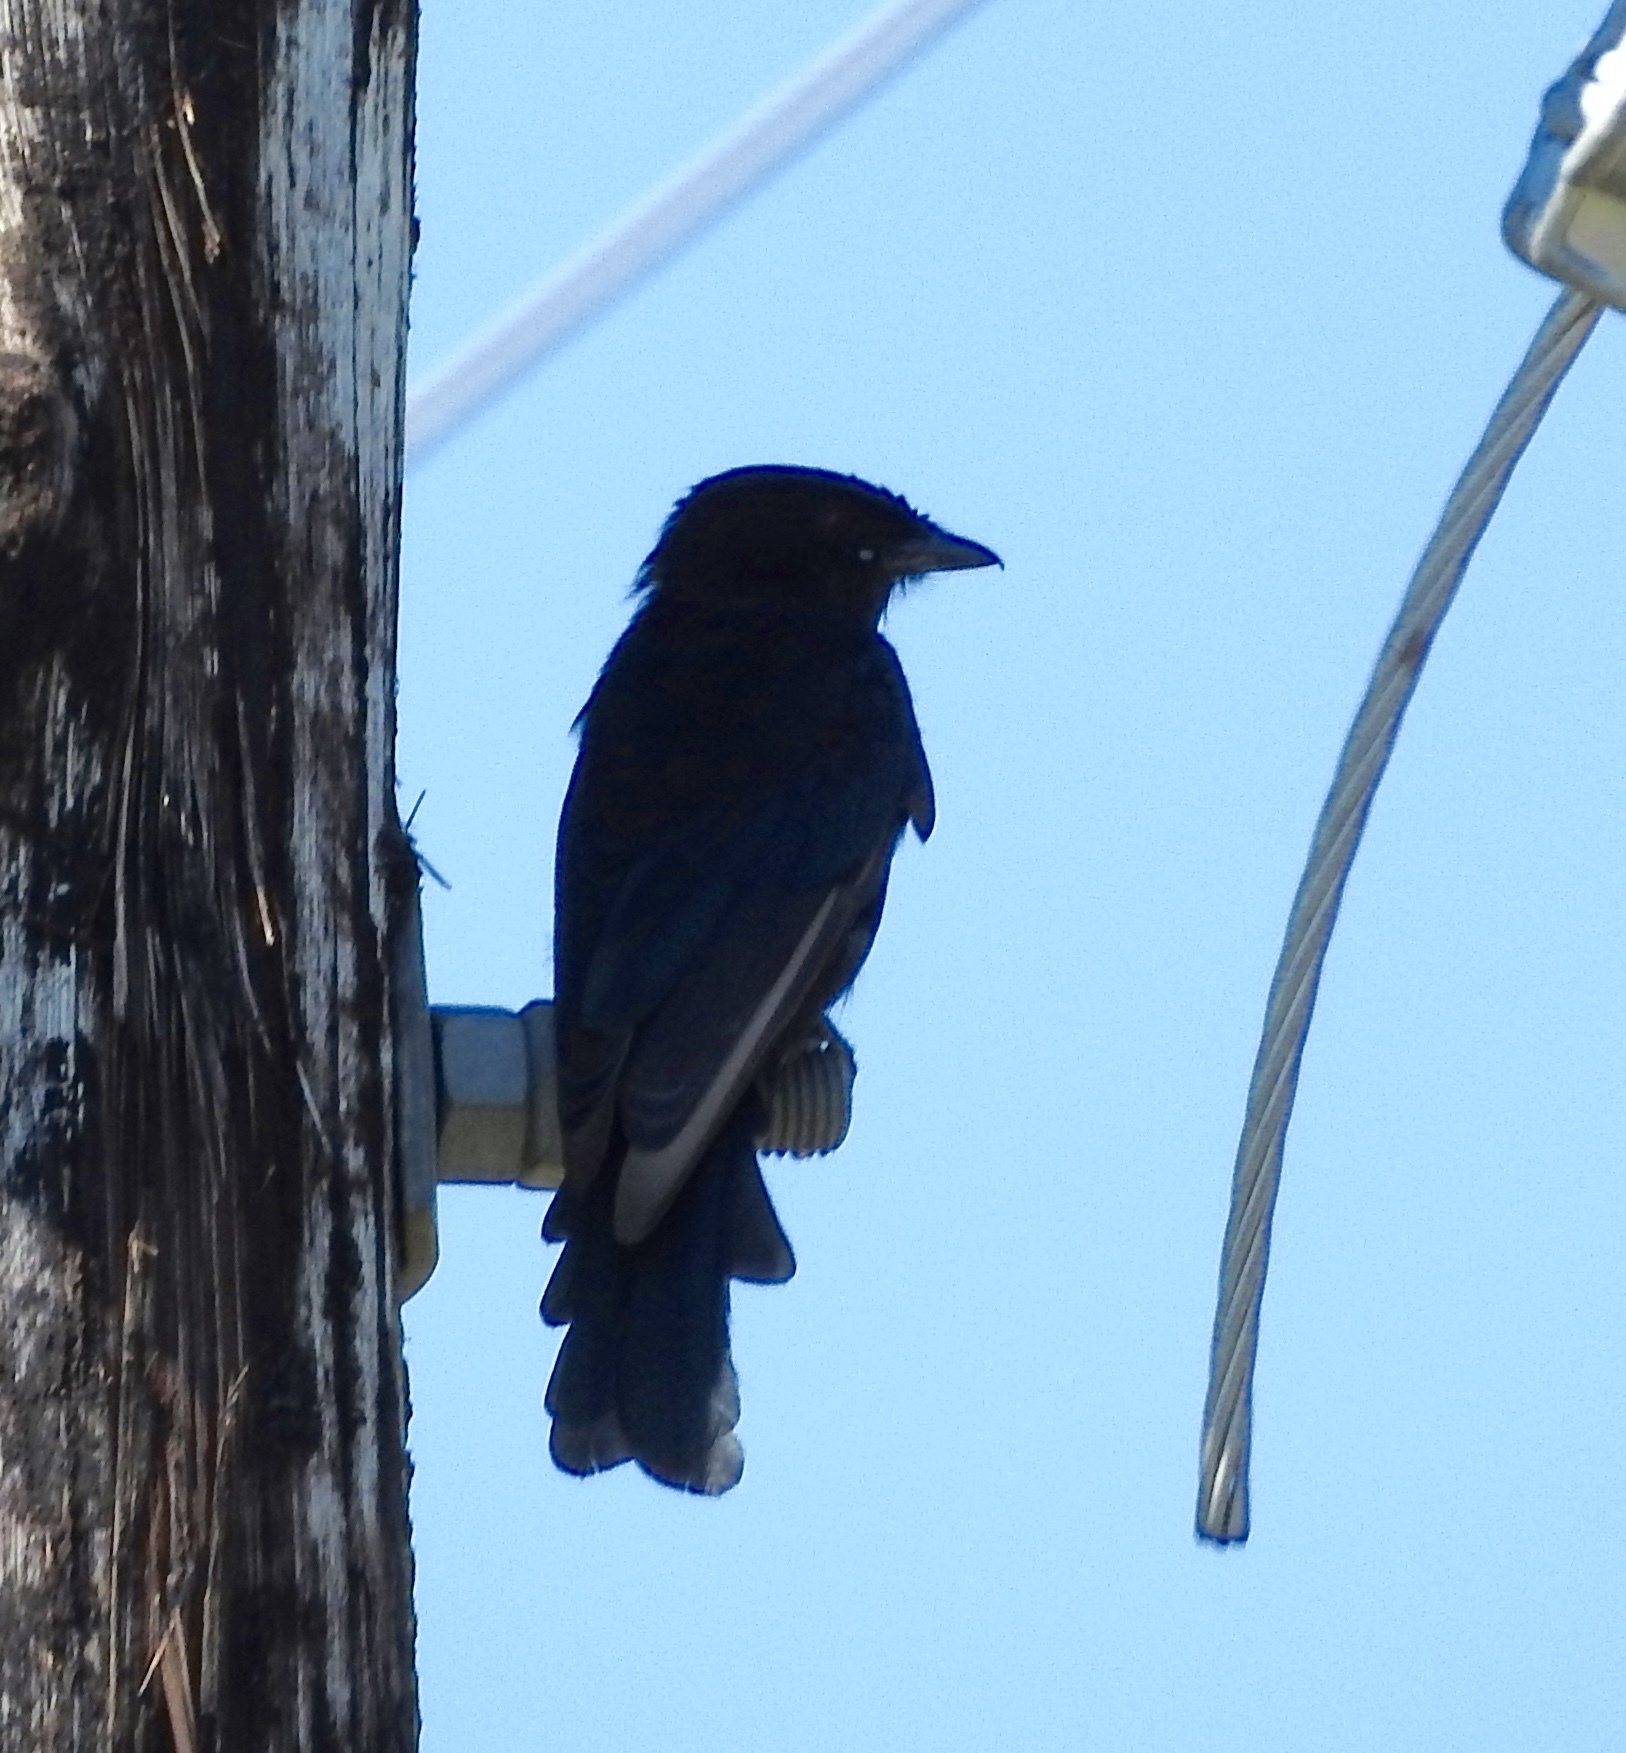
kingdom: Animalia
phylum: Chordata
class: Aves
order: Passeriformes
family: Dicruridae
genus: Dicrurus
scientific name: Dicrurus adsimilis
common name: Fork-tailed drongo
